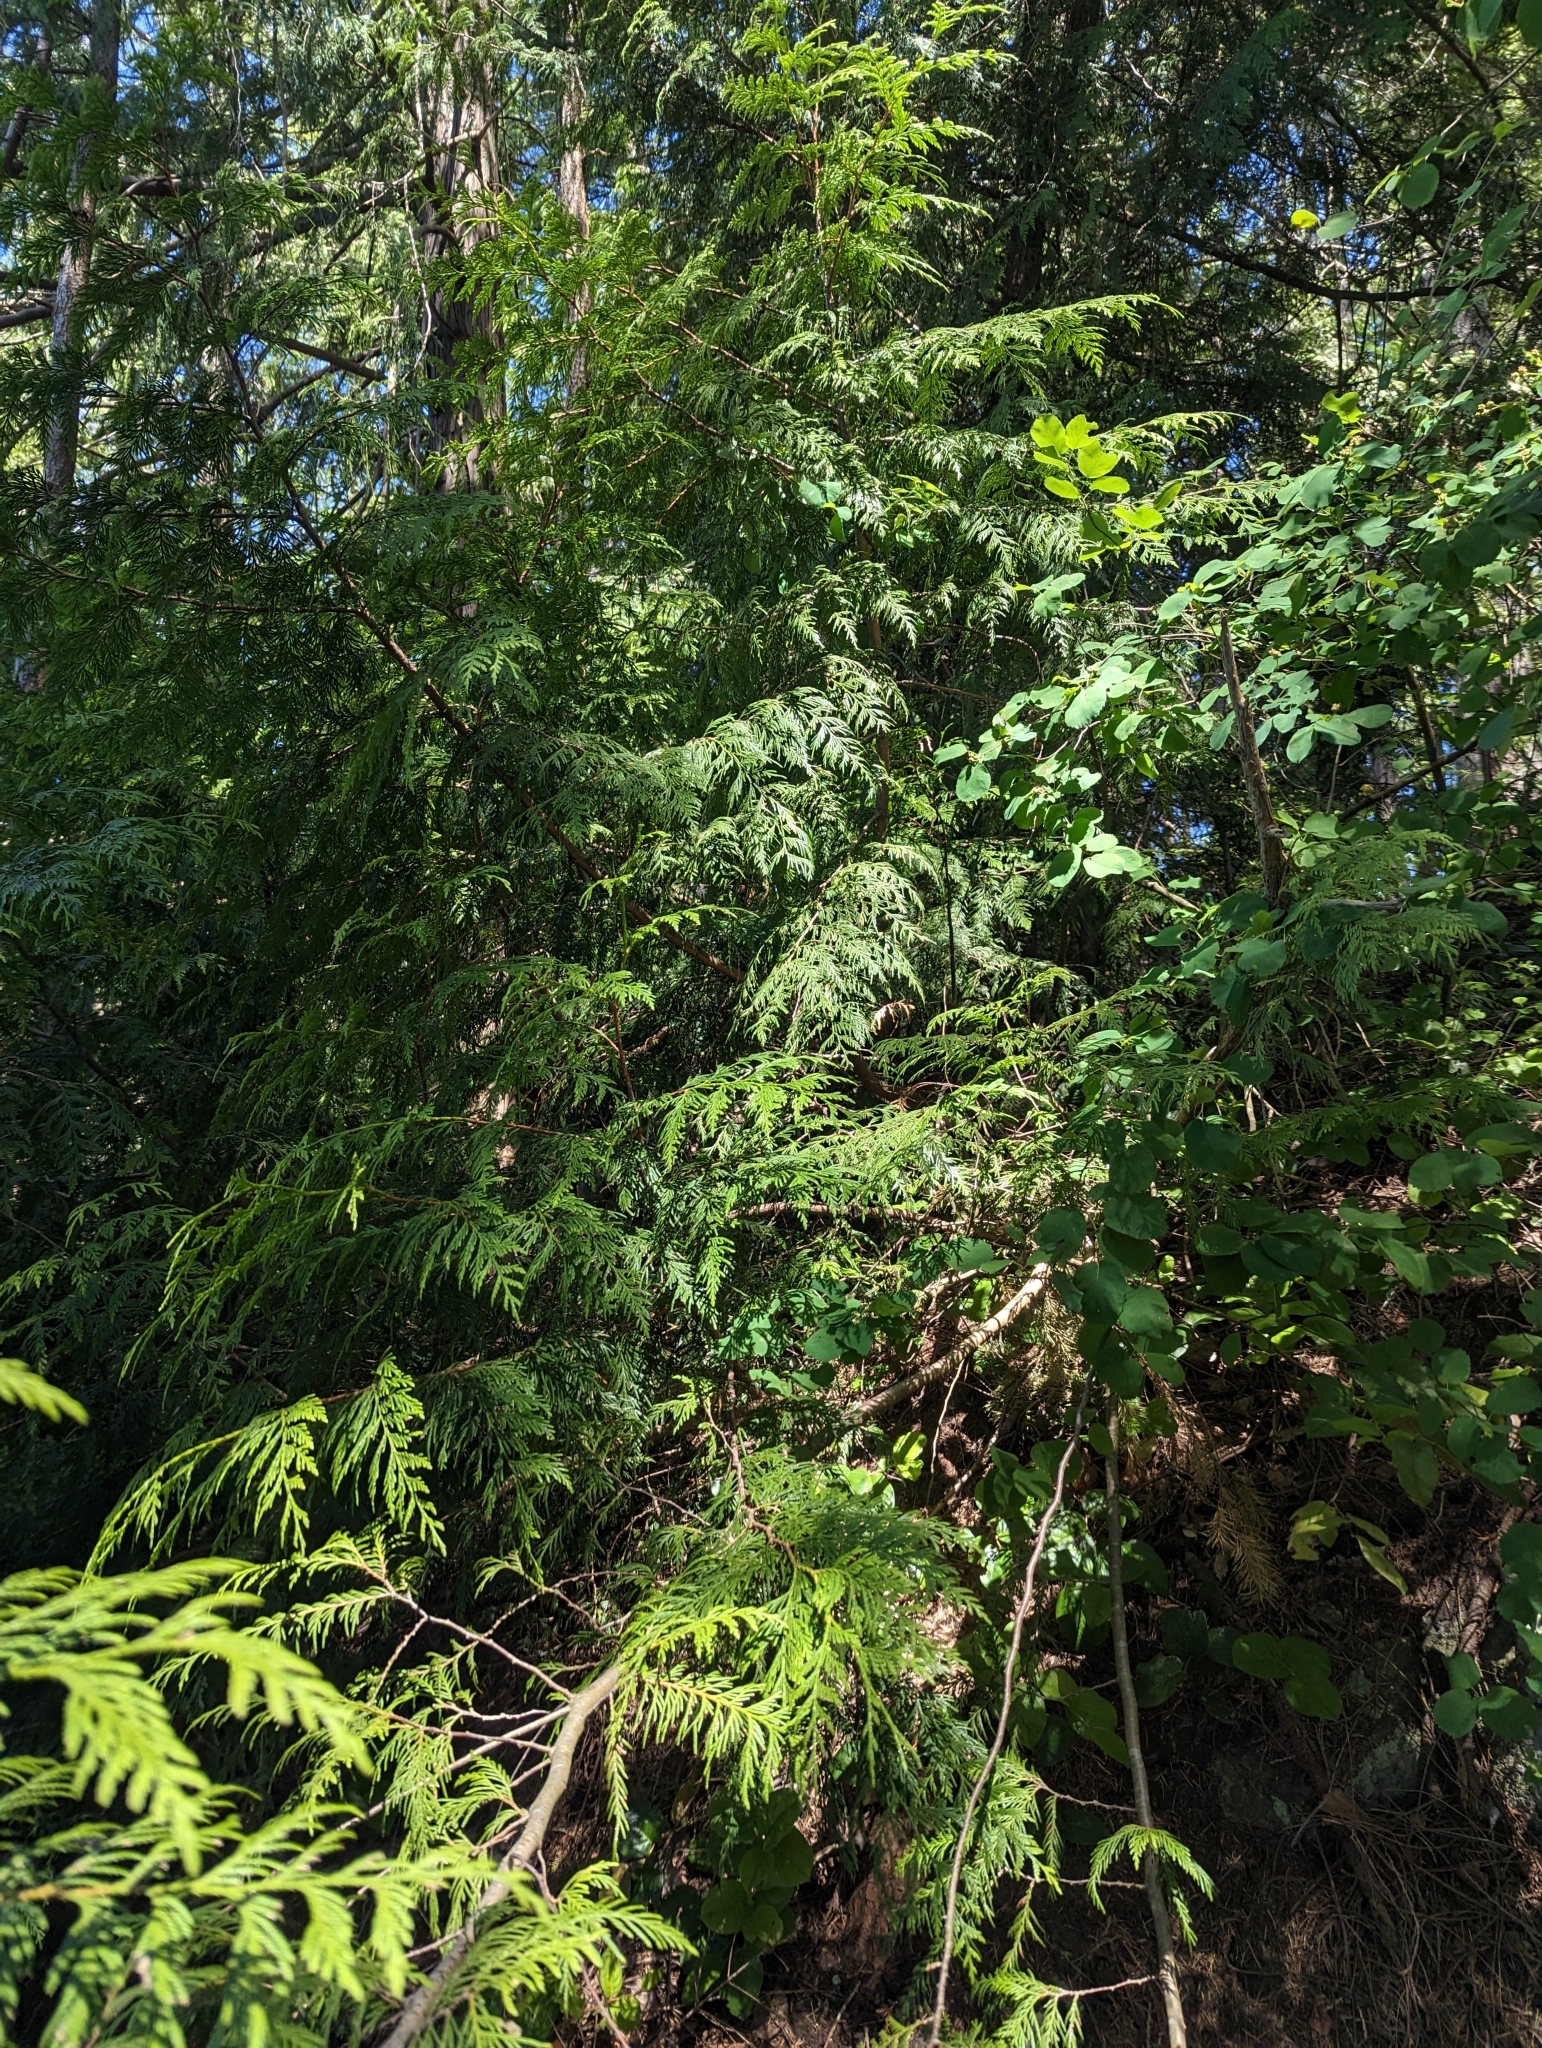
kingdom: Plantae
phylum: Tracheophyta
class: Pinopsida
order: Pinales
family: Cupressaceae
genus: Thuja
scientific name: Thuja plicata
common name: Western red-cedar
